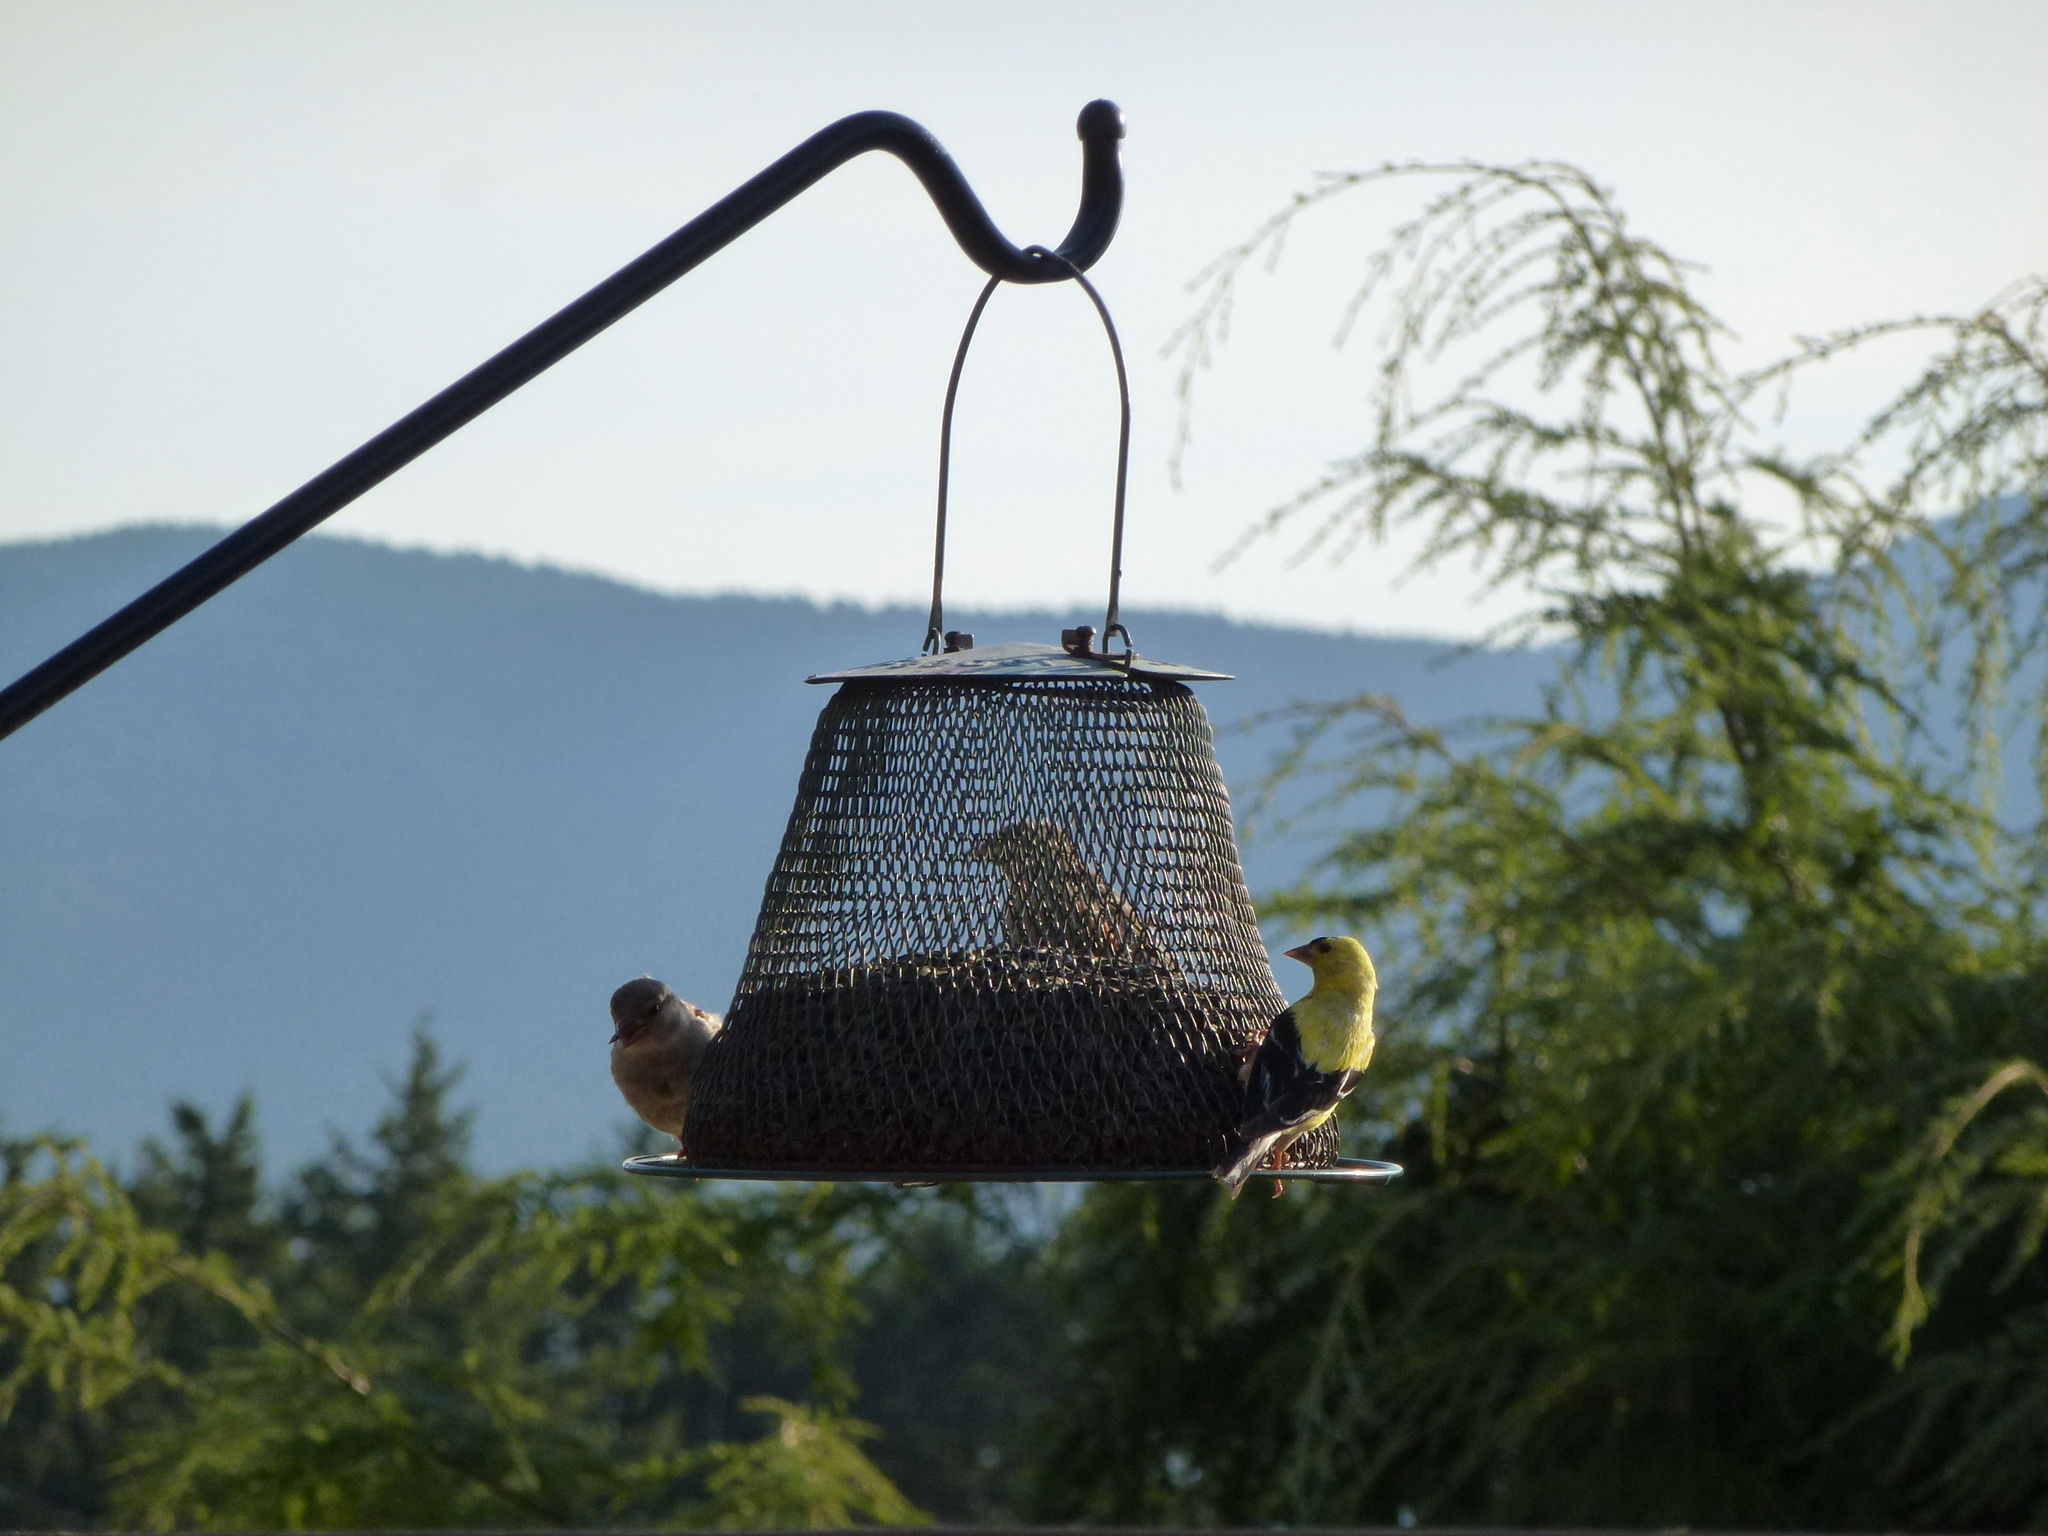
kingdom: Animalia
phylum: Chordata
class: Aves
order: Passeriformes
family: Fringillidae
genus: Spinus
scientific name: Spinus tristis
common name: American goldfinch
